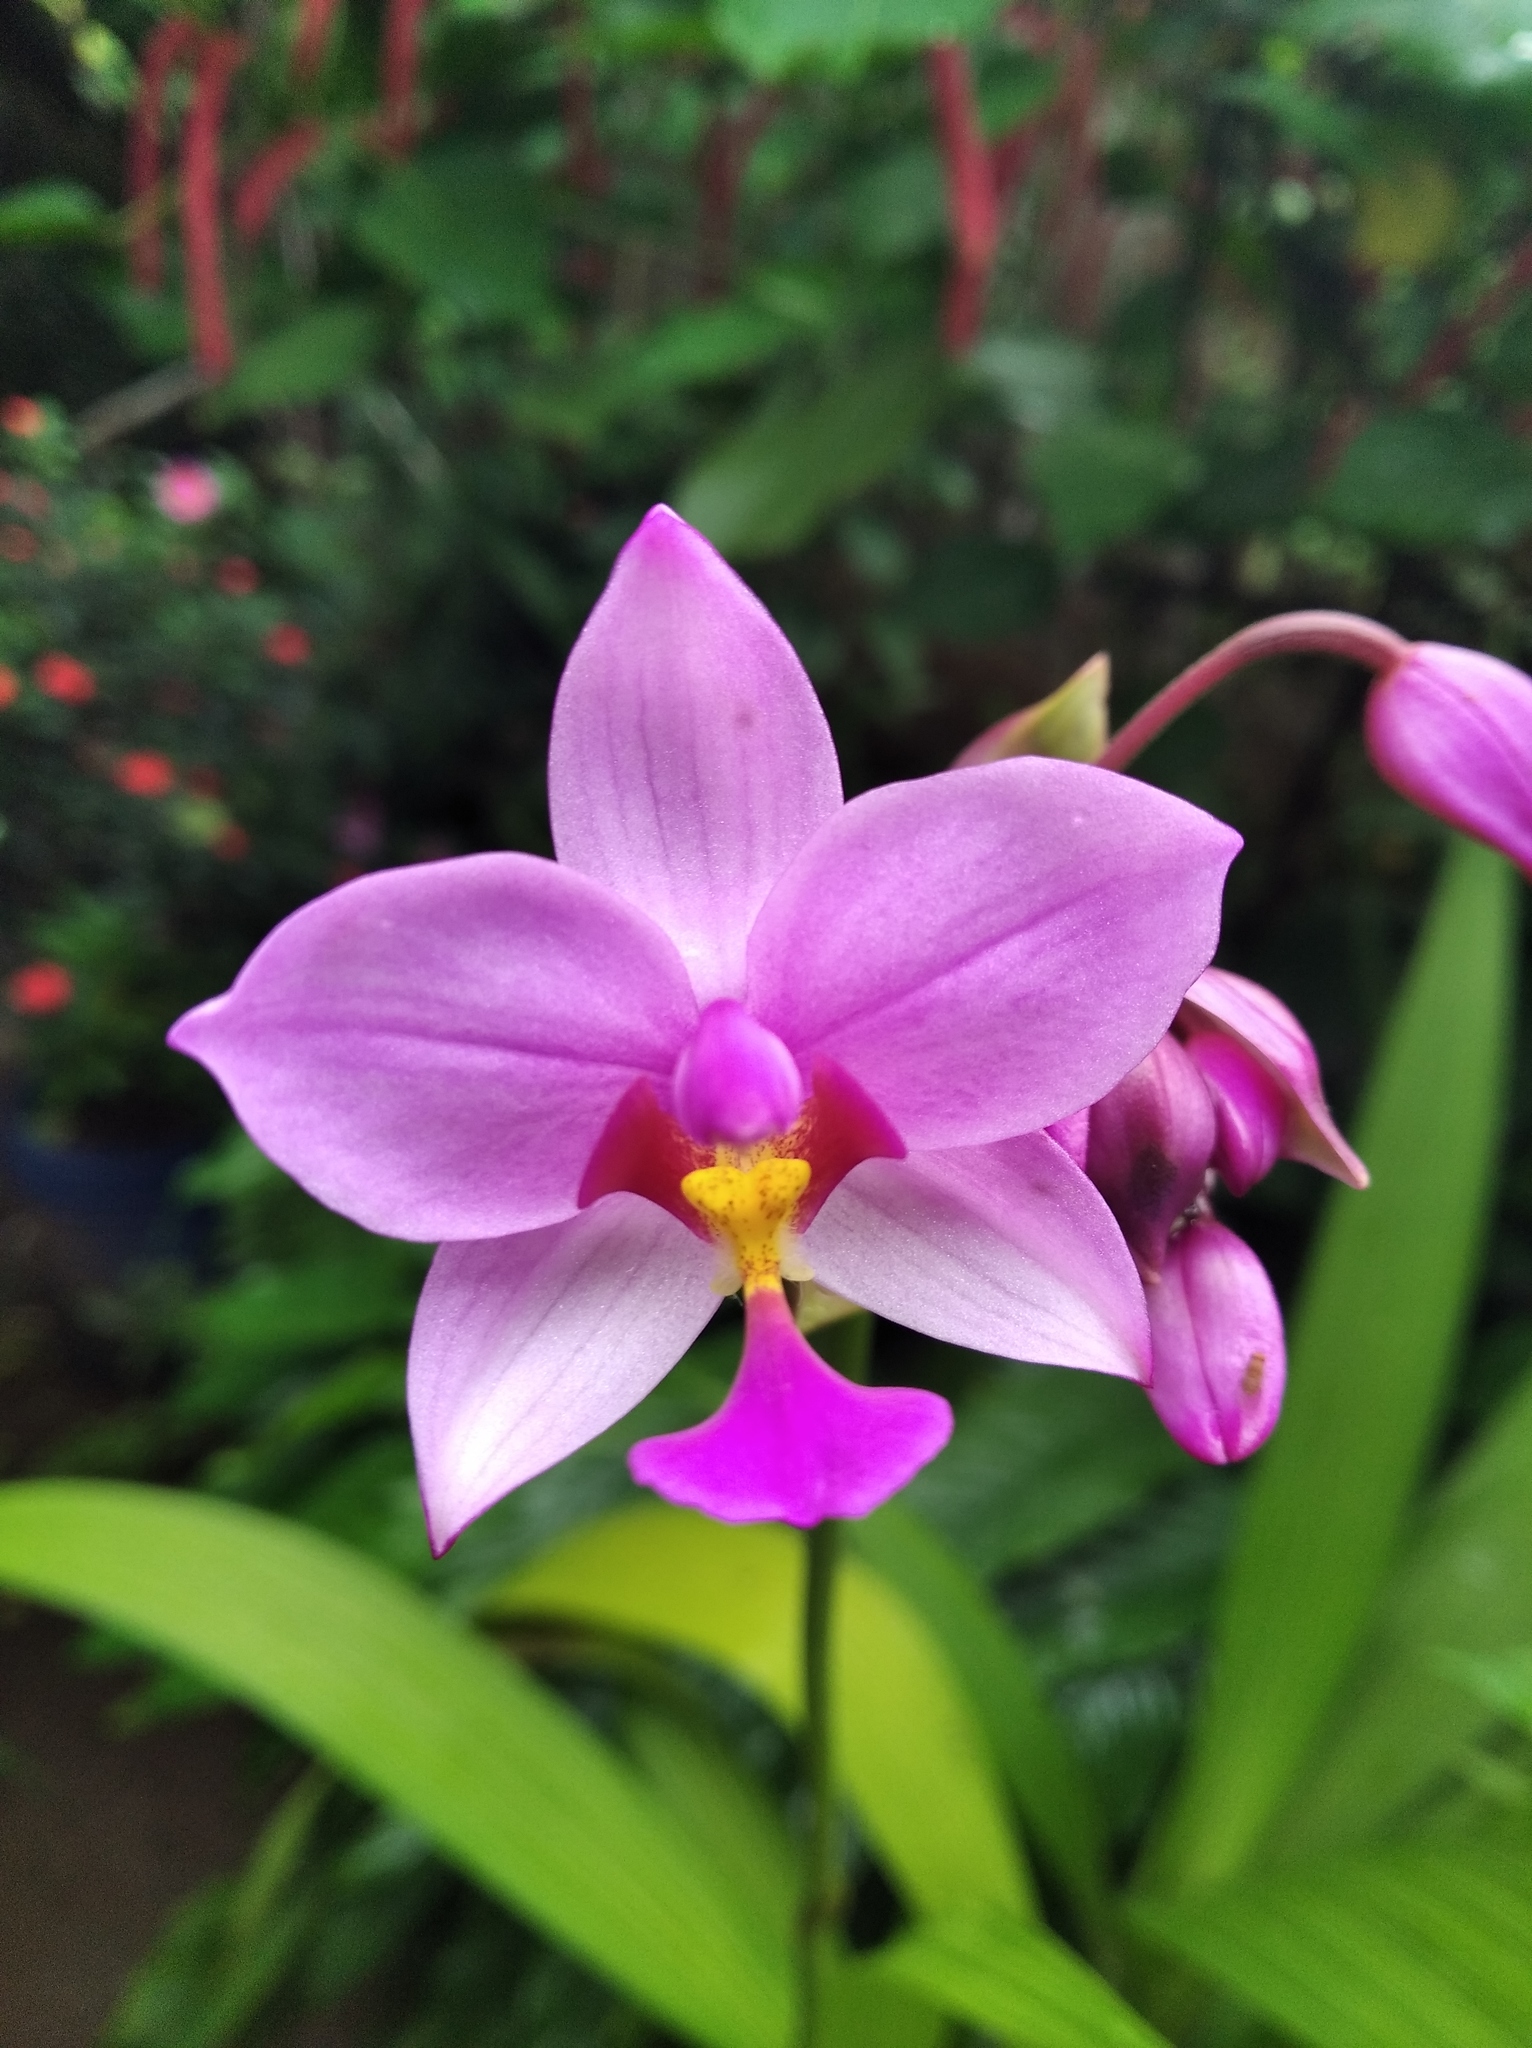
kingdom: Plantae
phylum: Tracheophyta
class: Liliopsida
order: Asparagales
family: Orchidaceae
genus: Spathoglottis
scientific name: Spathoglottis plicata
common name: Philippine ground orchid
